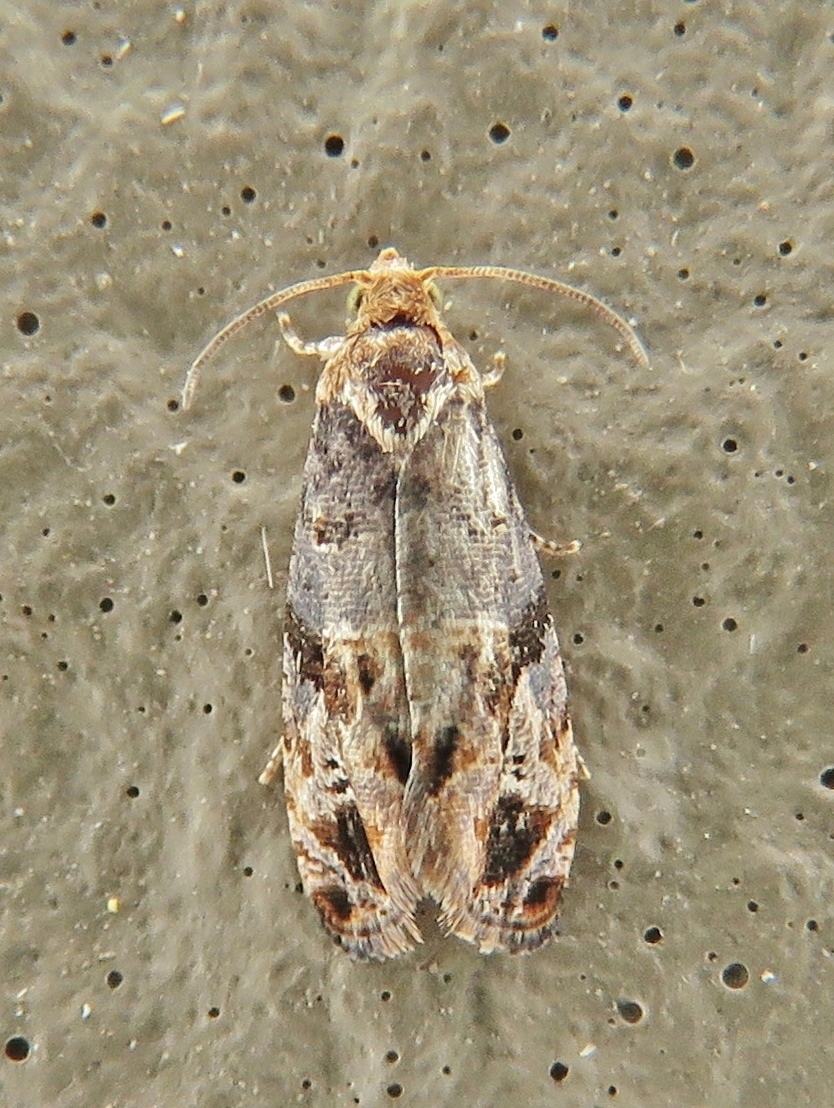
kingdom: Animalia
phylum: Arthropoda
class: Insecta
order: Lepidoptera
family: Tortricidae
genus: Paralobesia
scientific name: Paralobesia viteana
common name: Grape berry moth
